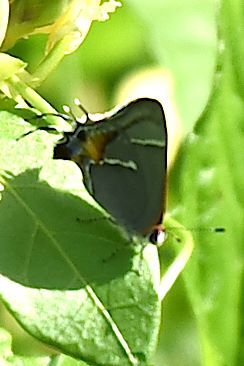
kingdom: Animalia
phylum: Arthropoda
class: Insecta
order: Lepidoptera
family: Lycaenidae
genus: Thecla
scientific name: Thecla martialis
